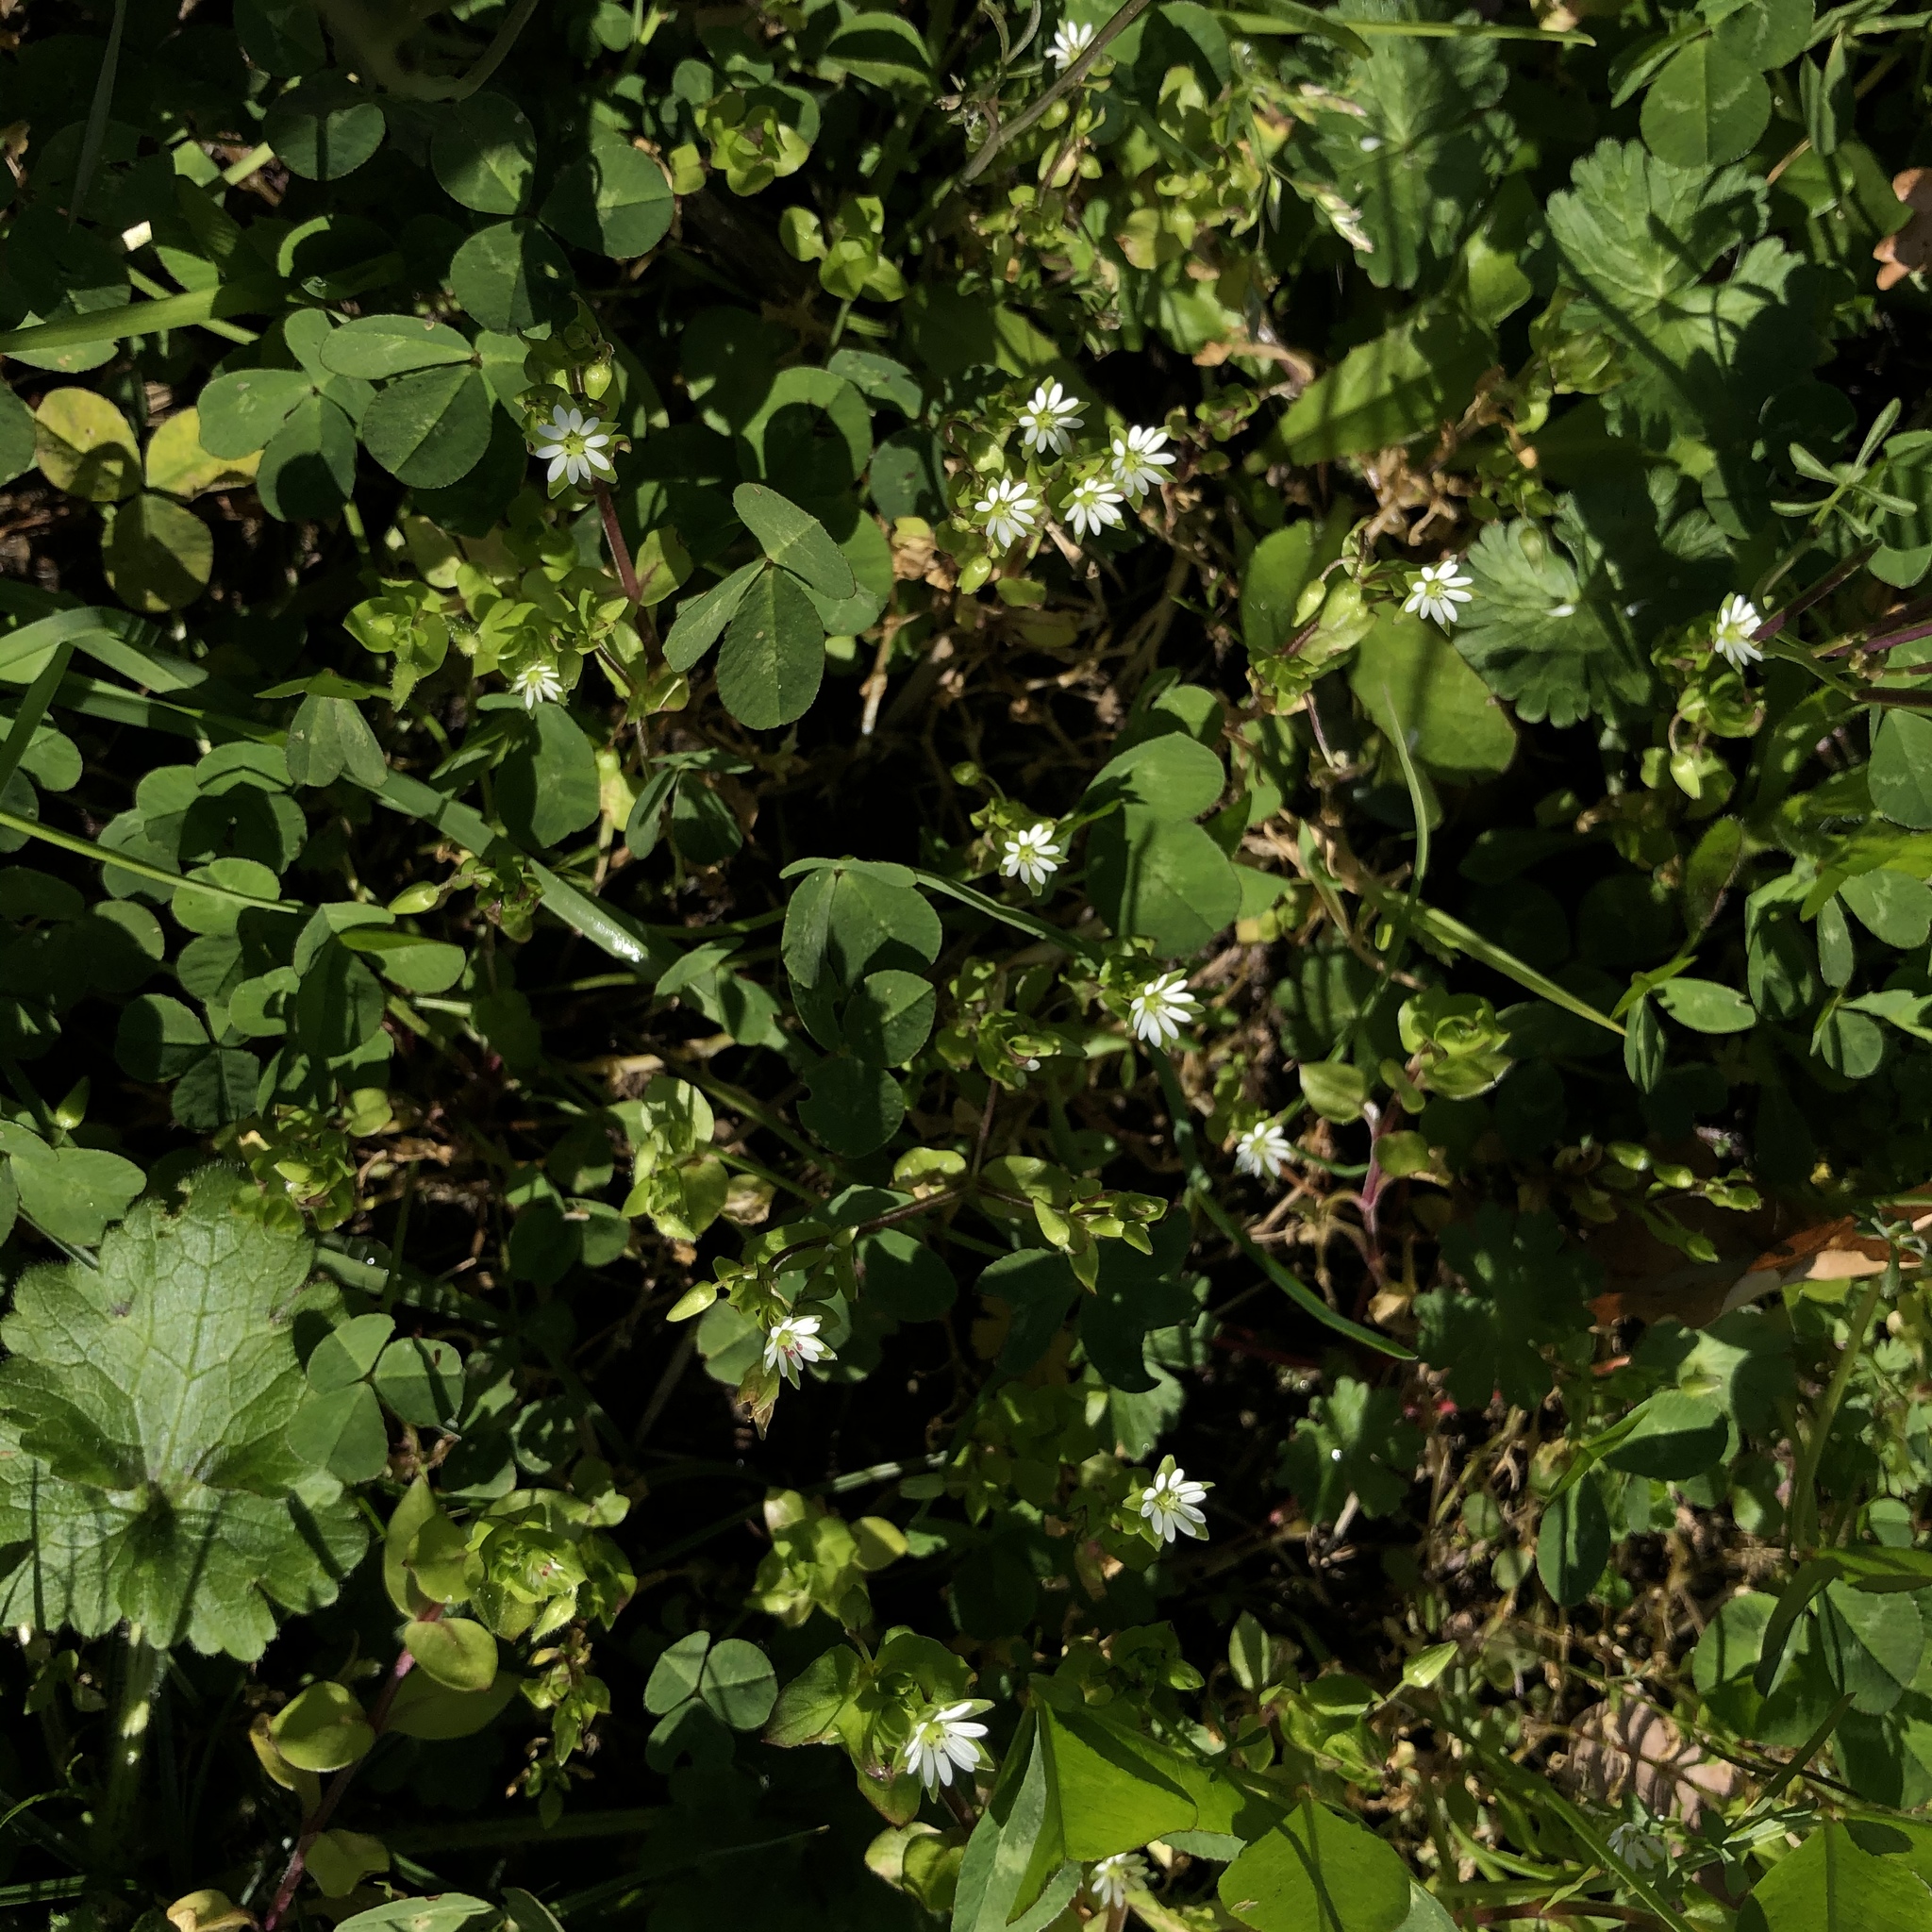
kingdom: Plantae
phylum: Tracheophyta
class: Magnoliopsida
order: Caryophyllales
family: Caryophyllaceae
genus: Stellaria
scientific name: Stellaria media
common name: Common chickweed
